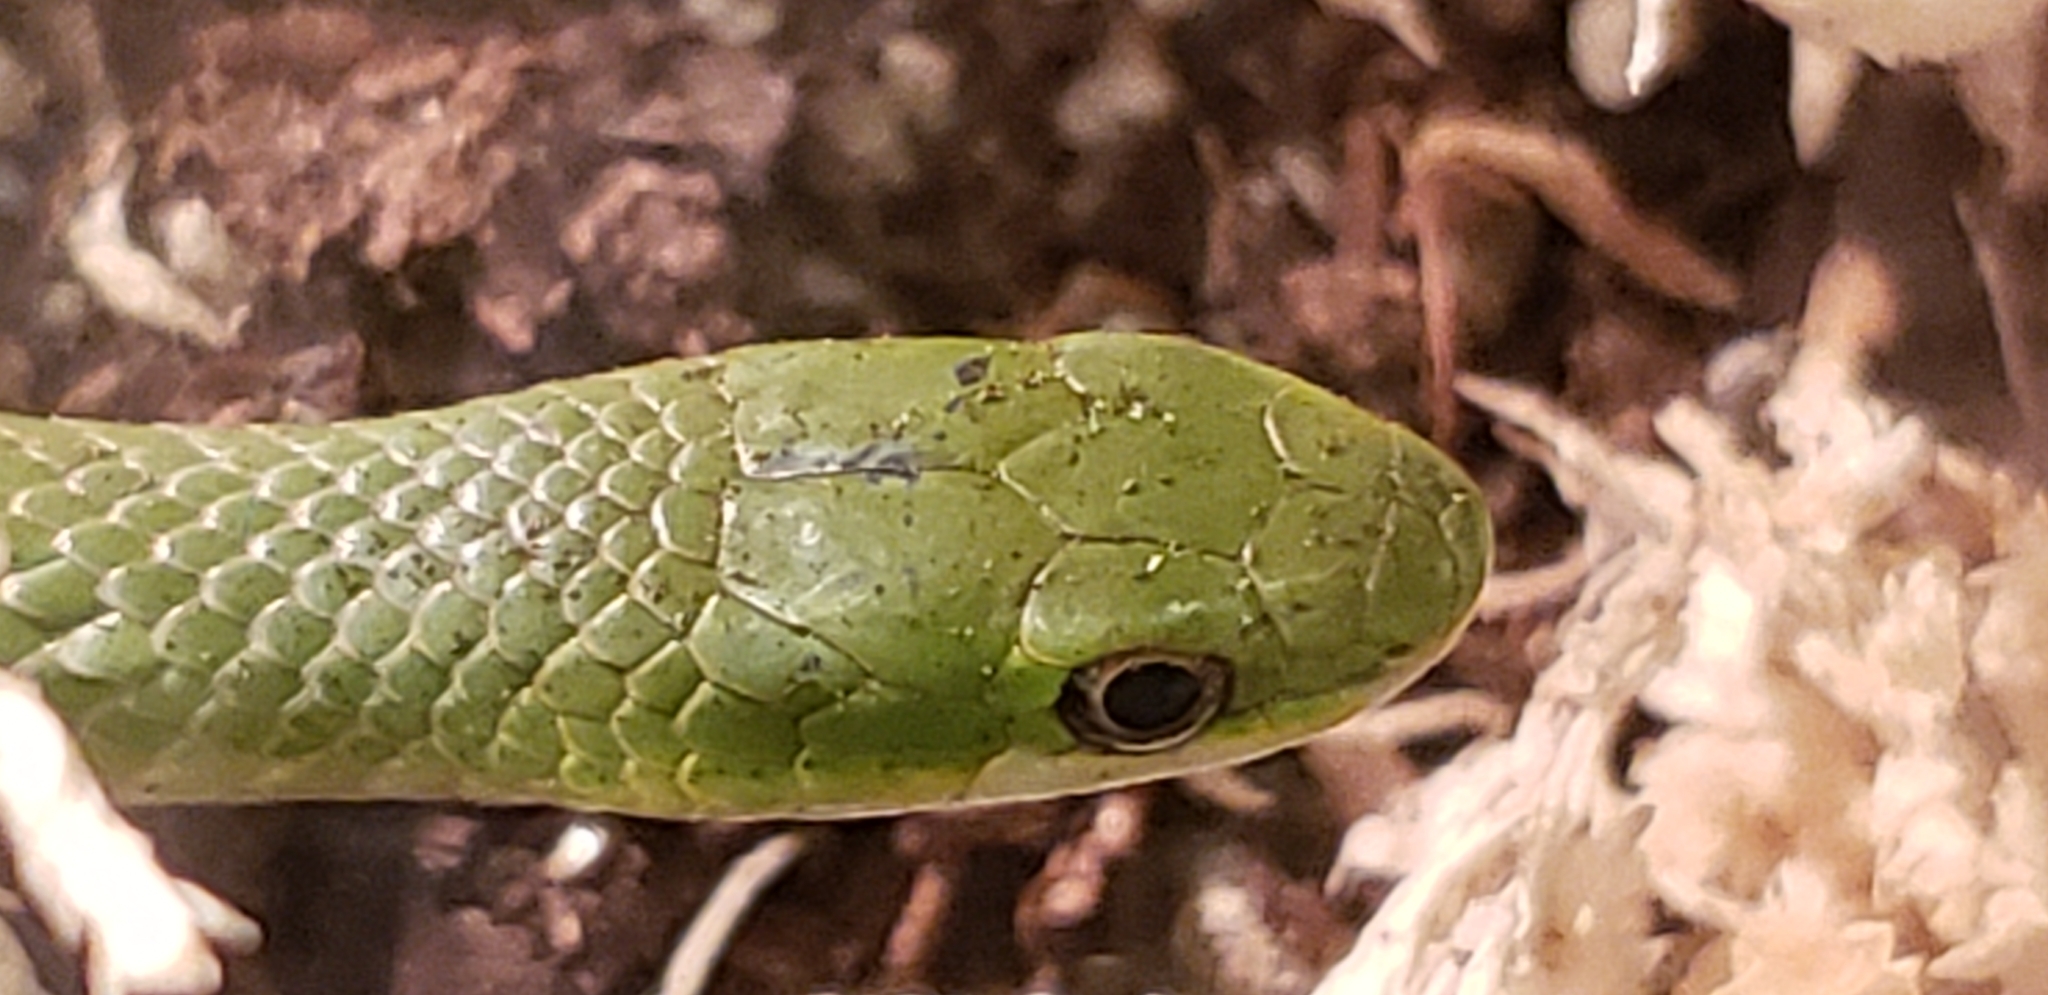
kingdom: Animalia
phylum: Chordata
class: Squamata
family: Colubridae
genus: Opheodrys
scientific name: Opheodrys vernalis
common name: Smooth green snake
